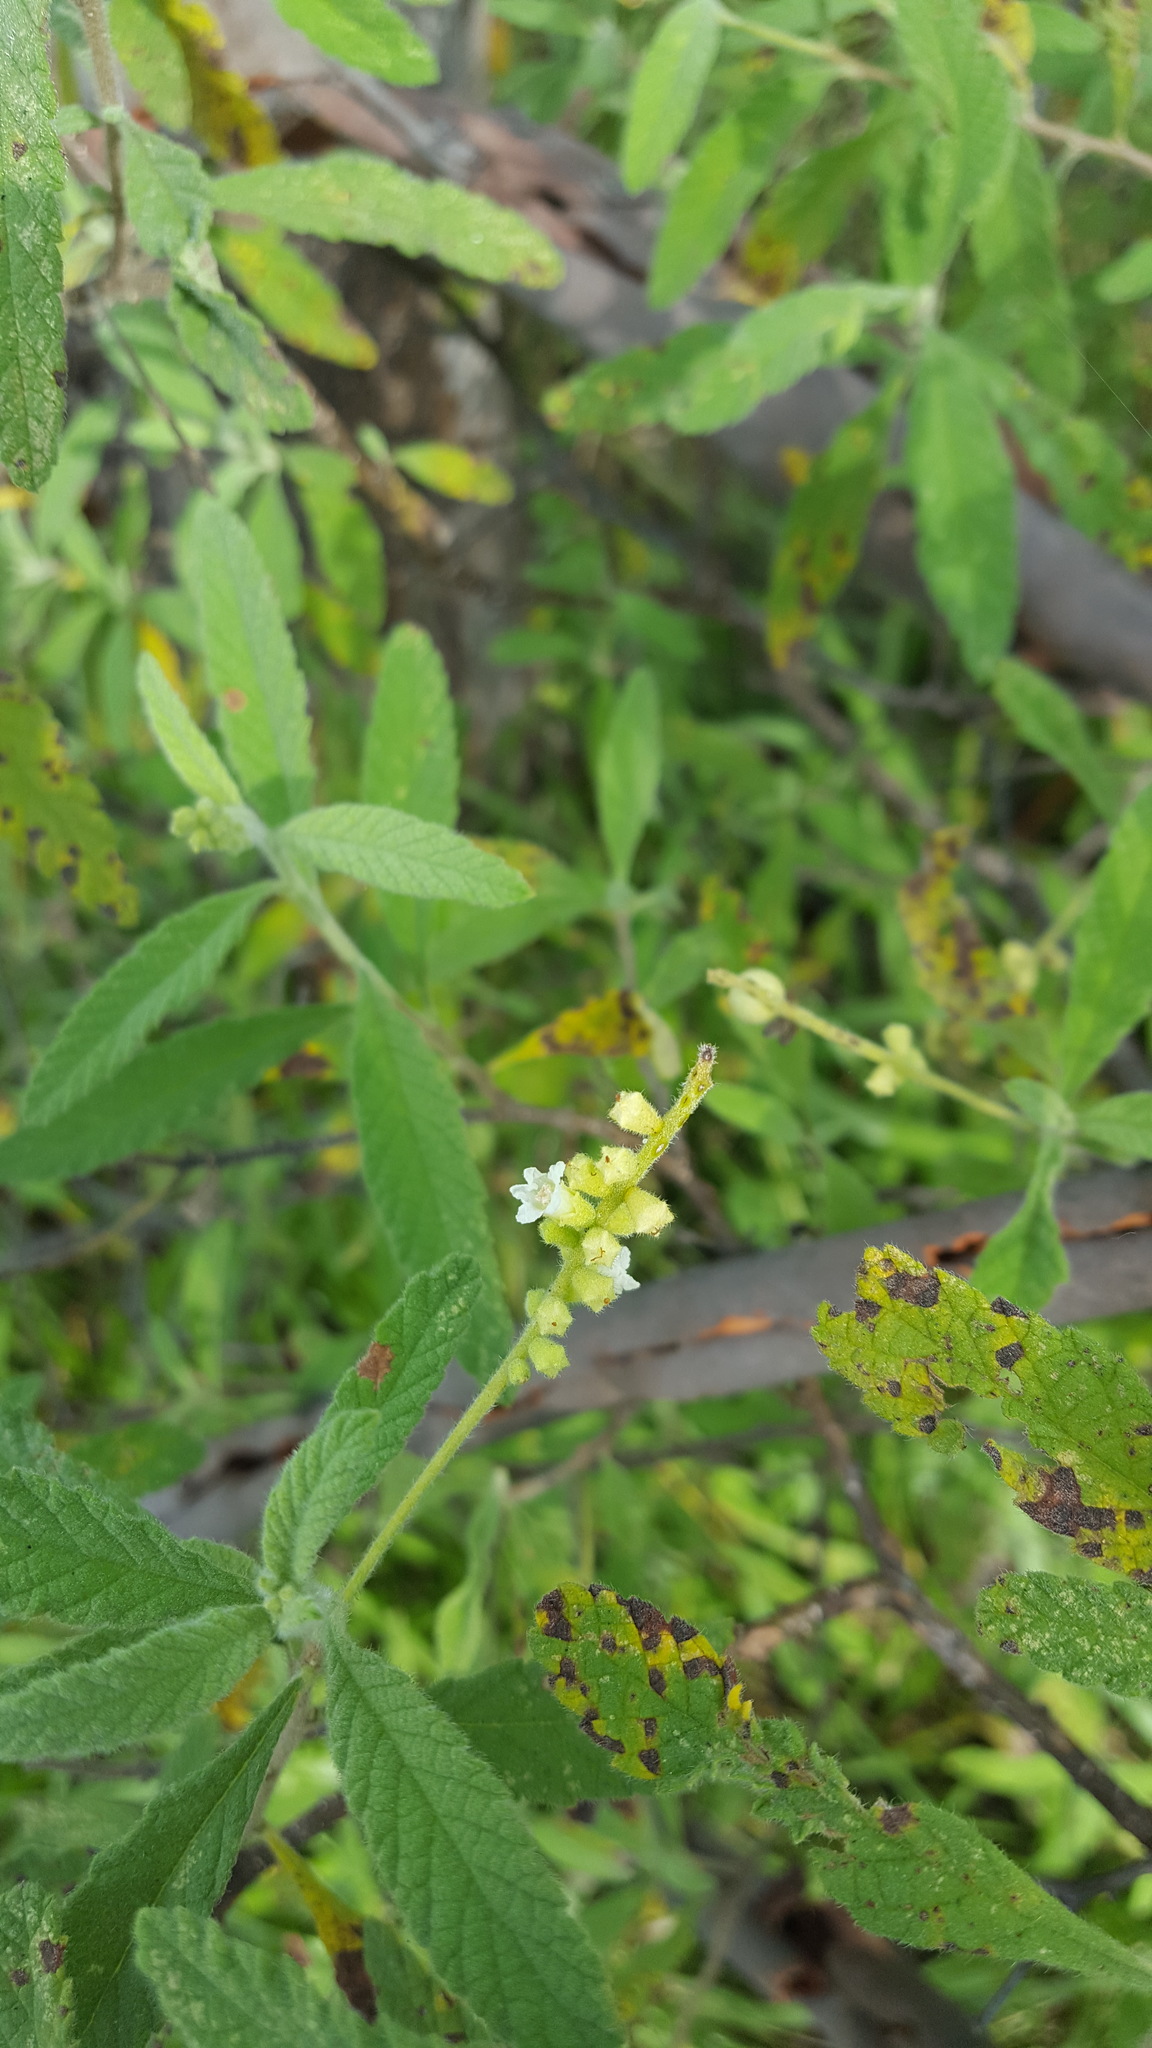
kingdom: Plantae
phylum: Tracheophyta
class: Magnoliopsida
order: Boraginales
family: Cordiaceae
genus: Varronia
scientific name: Varronia curassavica
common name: Black sage
